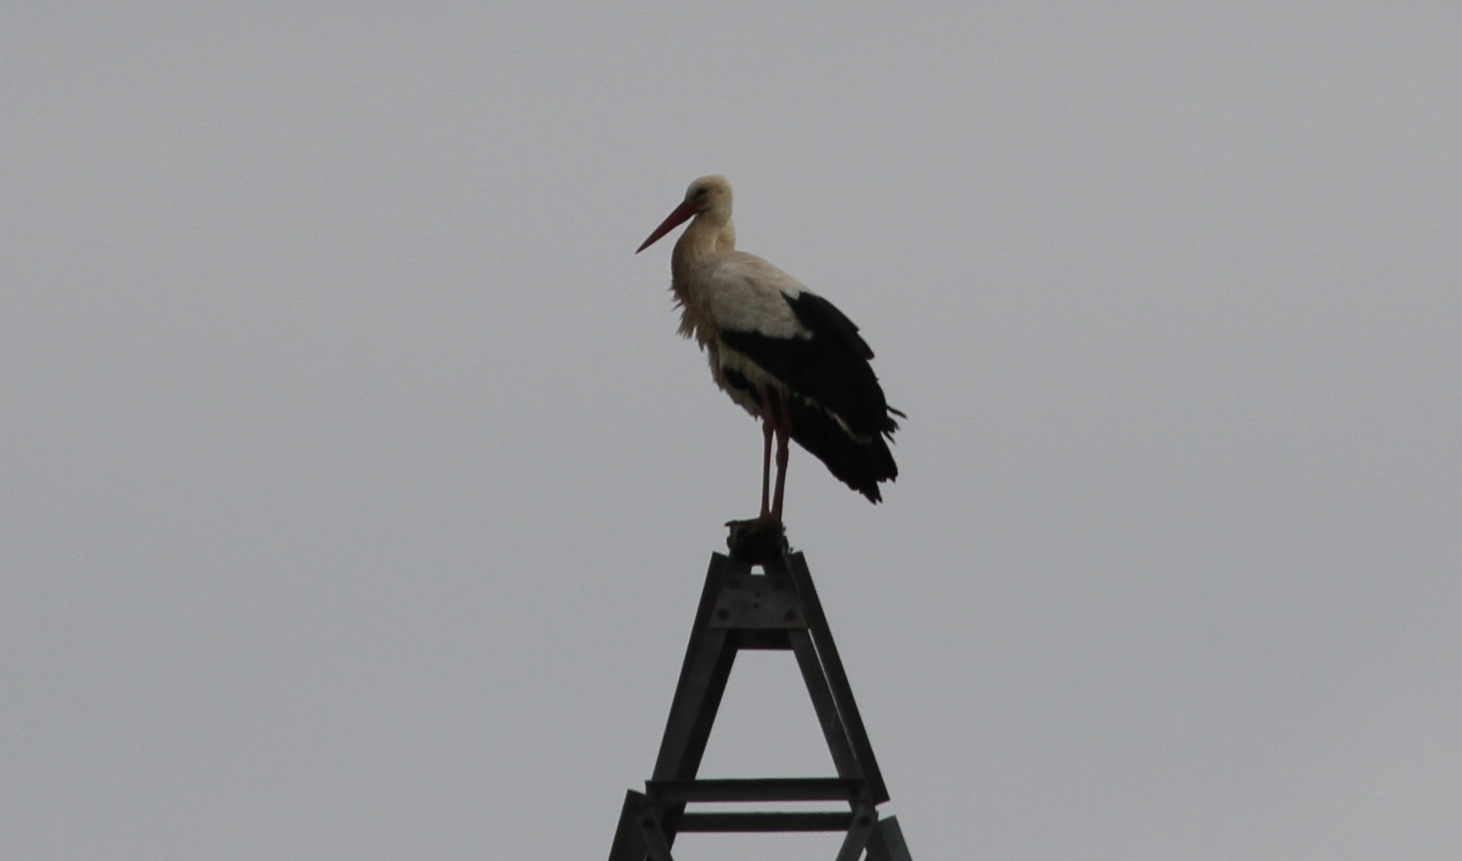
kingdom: Animalia
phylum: Chordata
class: Aves
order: Ciconiiformes
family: Ciconiidae
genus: Ciconia
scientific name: Ciconia ciconia
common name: White stork
